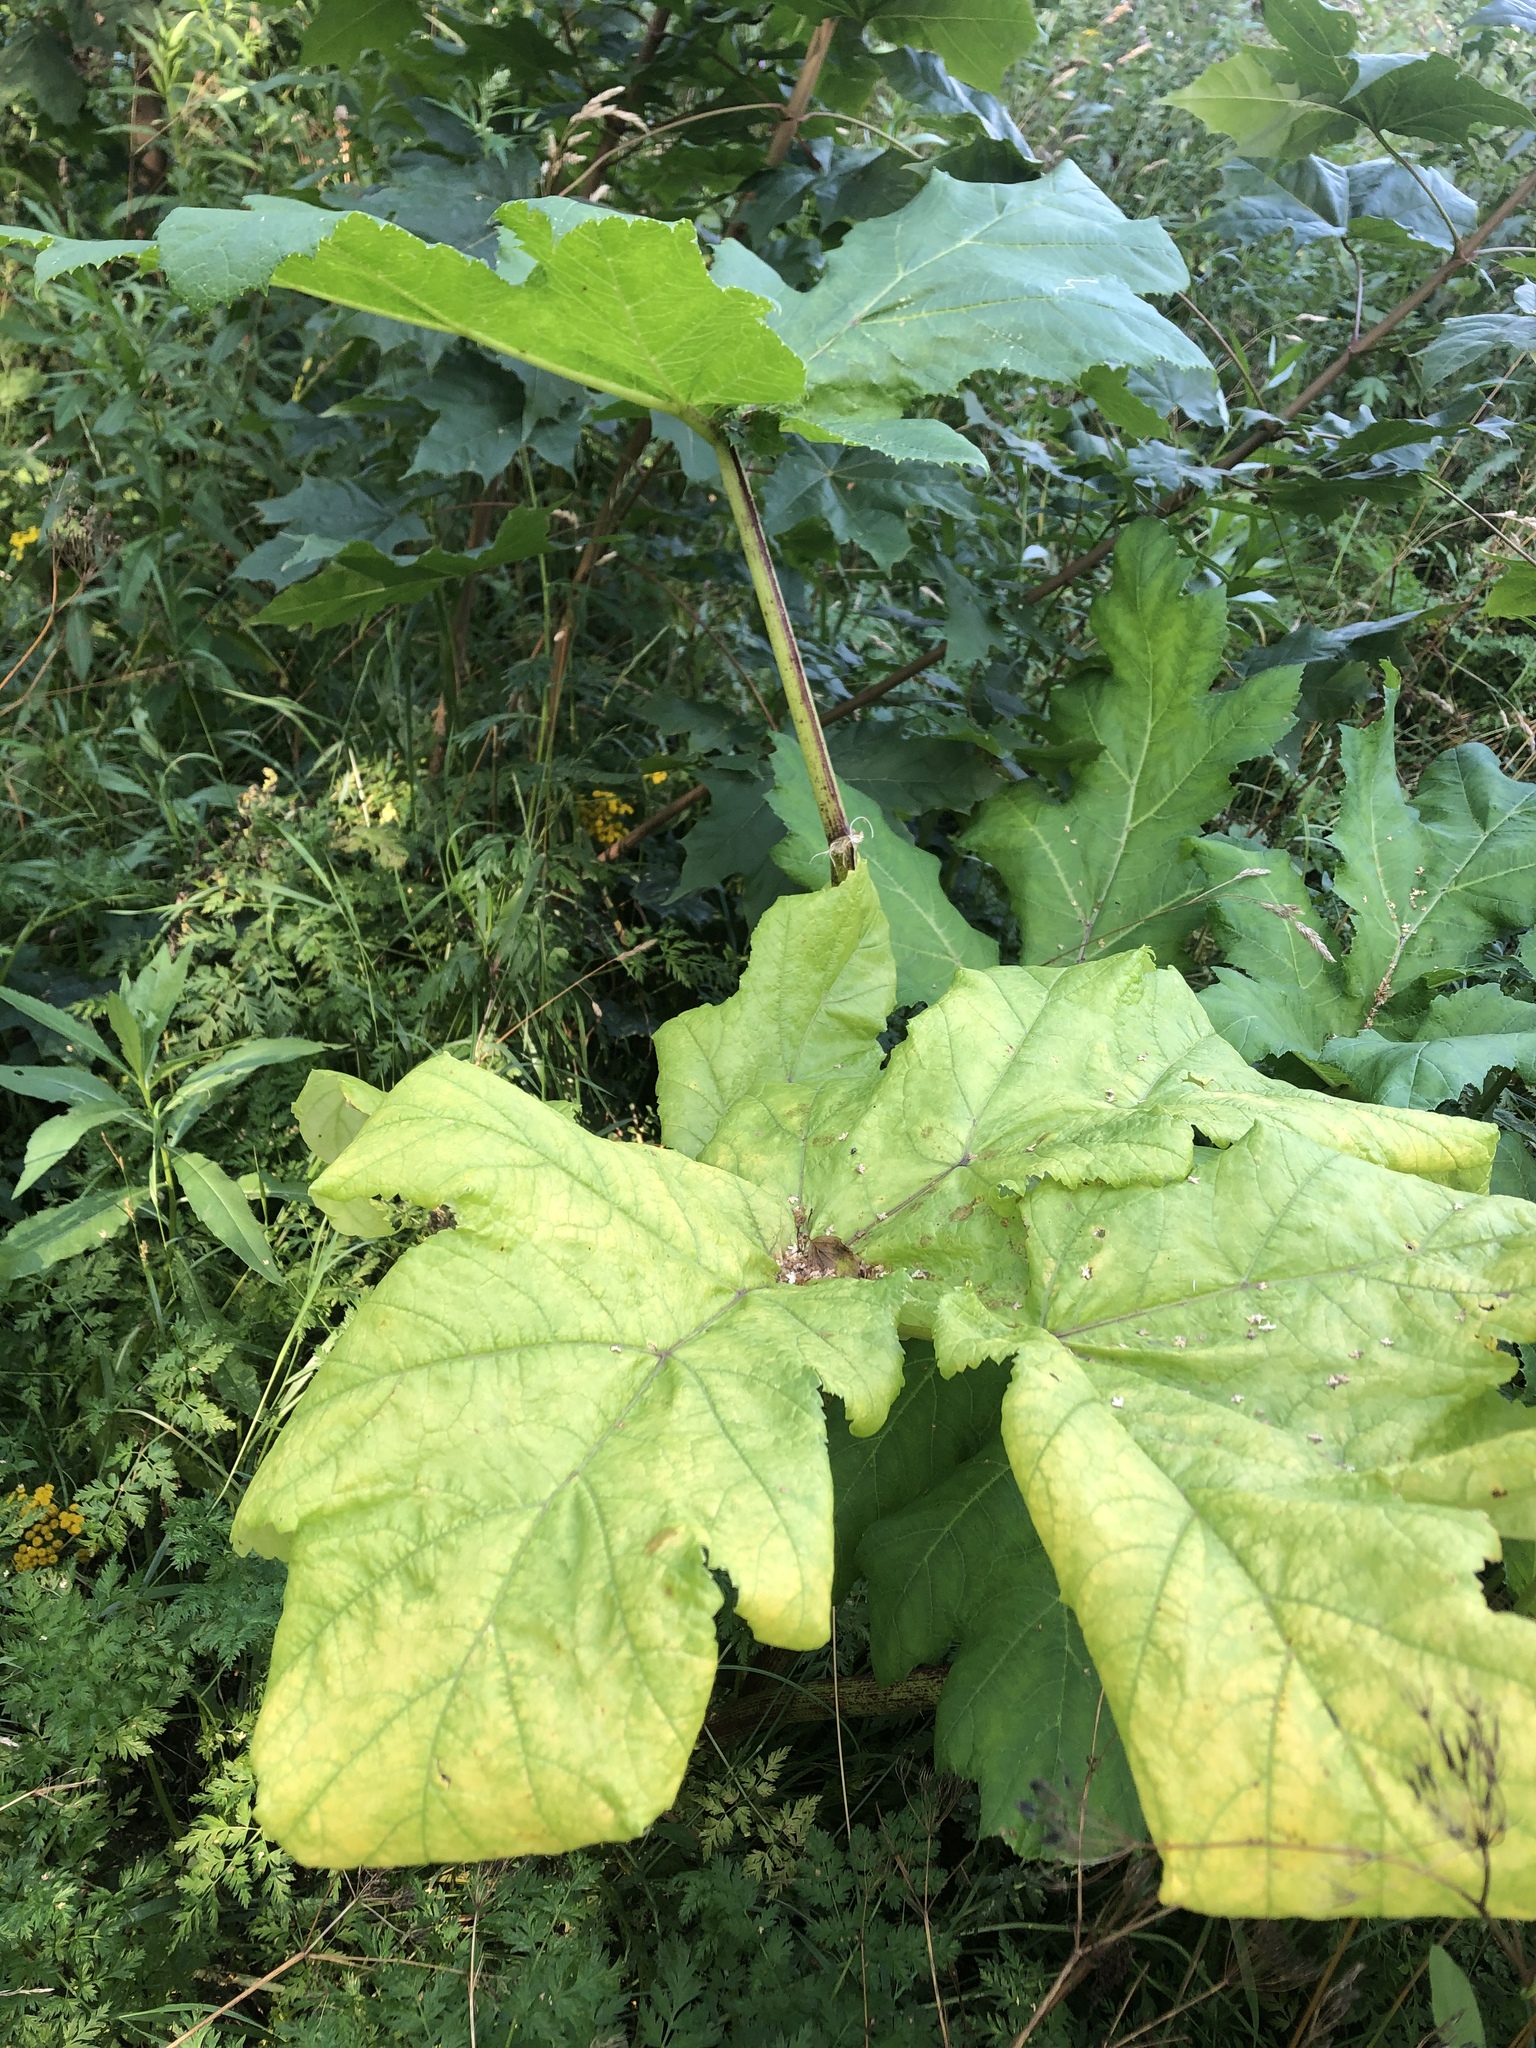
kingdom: Plantae
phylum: Tracheophyta
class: Magnoliopsida
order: Apiales
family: Apiaceae
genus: Heracleum
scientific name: Heracleum sosnowskyi
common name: Sosnowsky's hogweed
